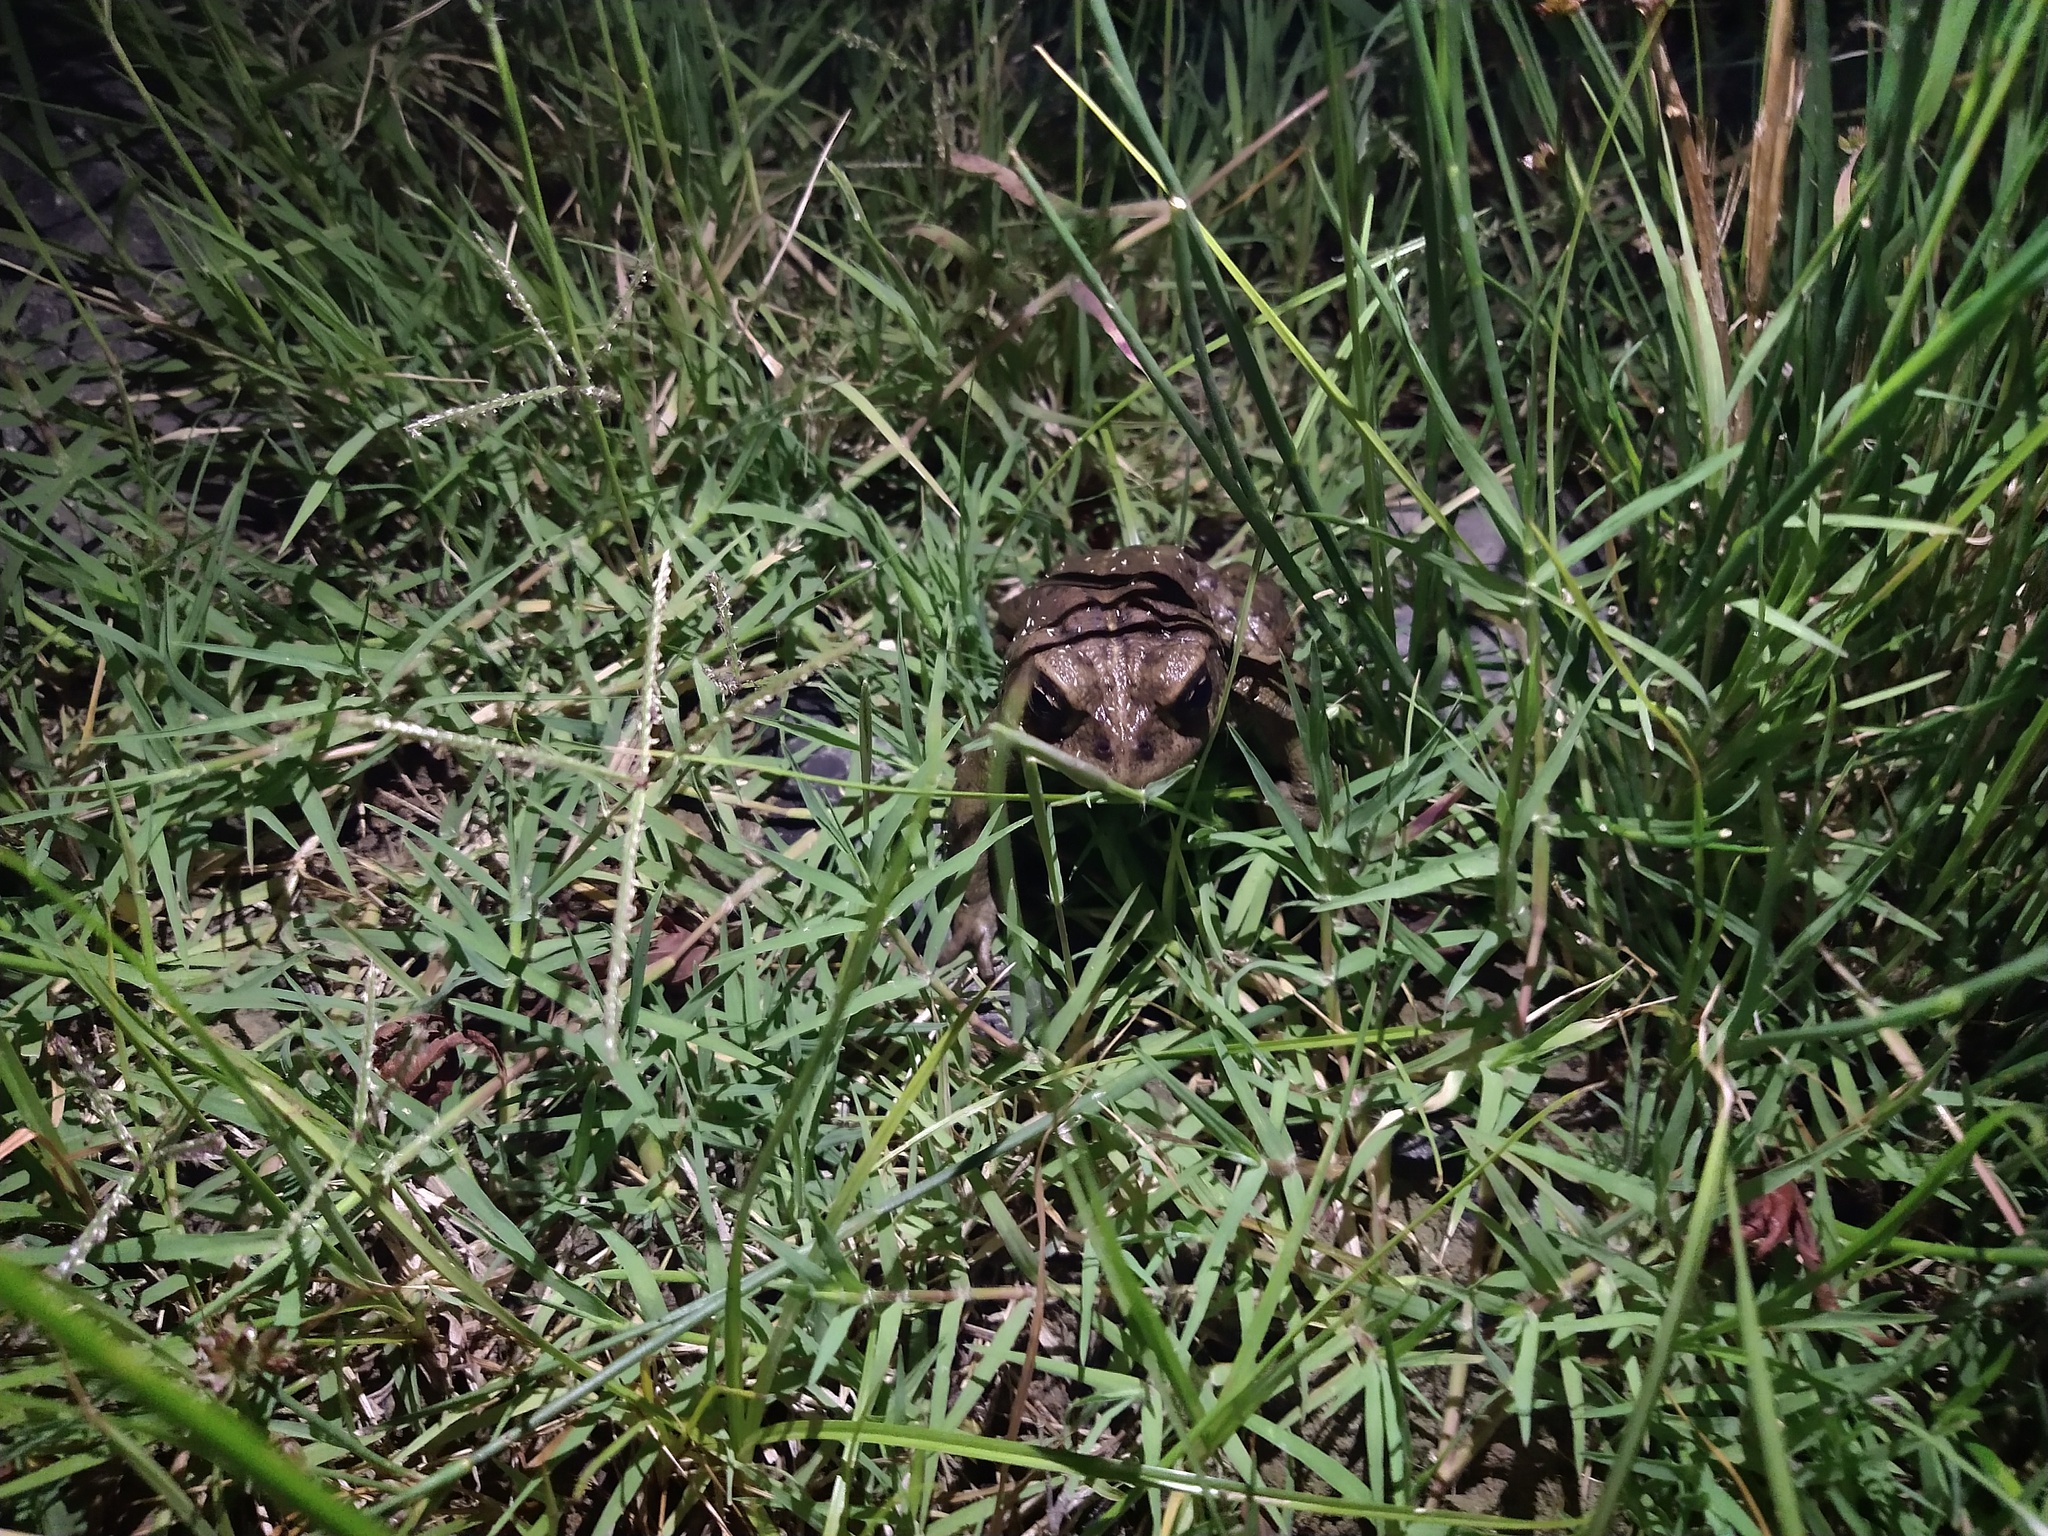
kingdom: Animalia
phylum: Chordata
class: Amphibia
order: Anura
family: Bufonidae
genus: Anaxyrus
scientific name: Anaxyrus boreas
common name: Western toad
